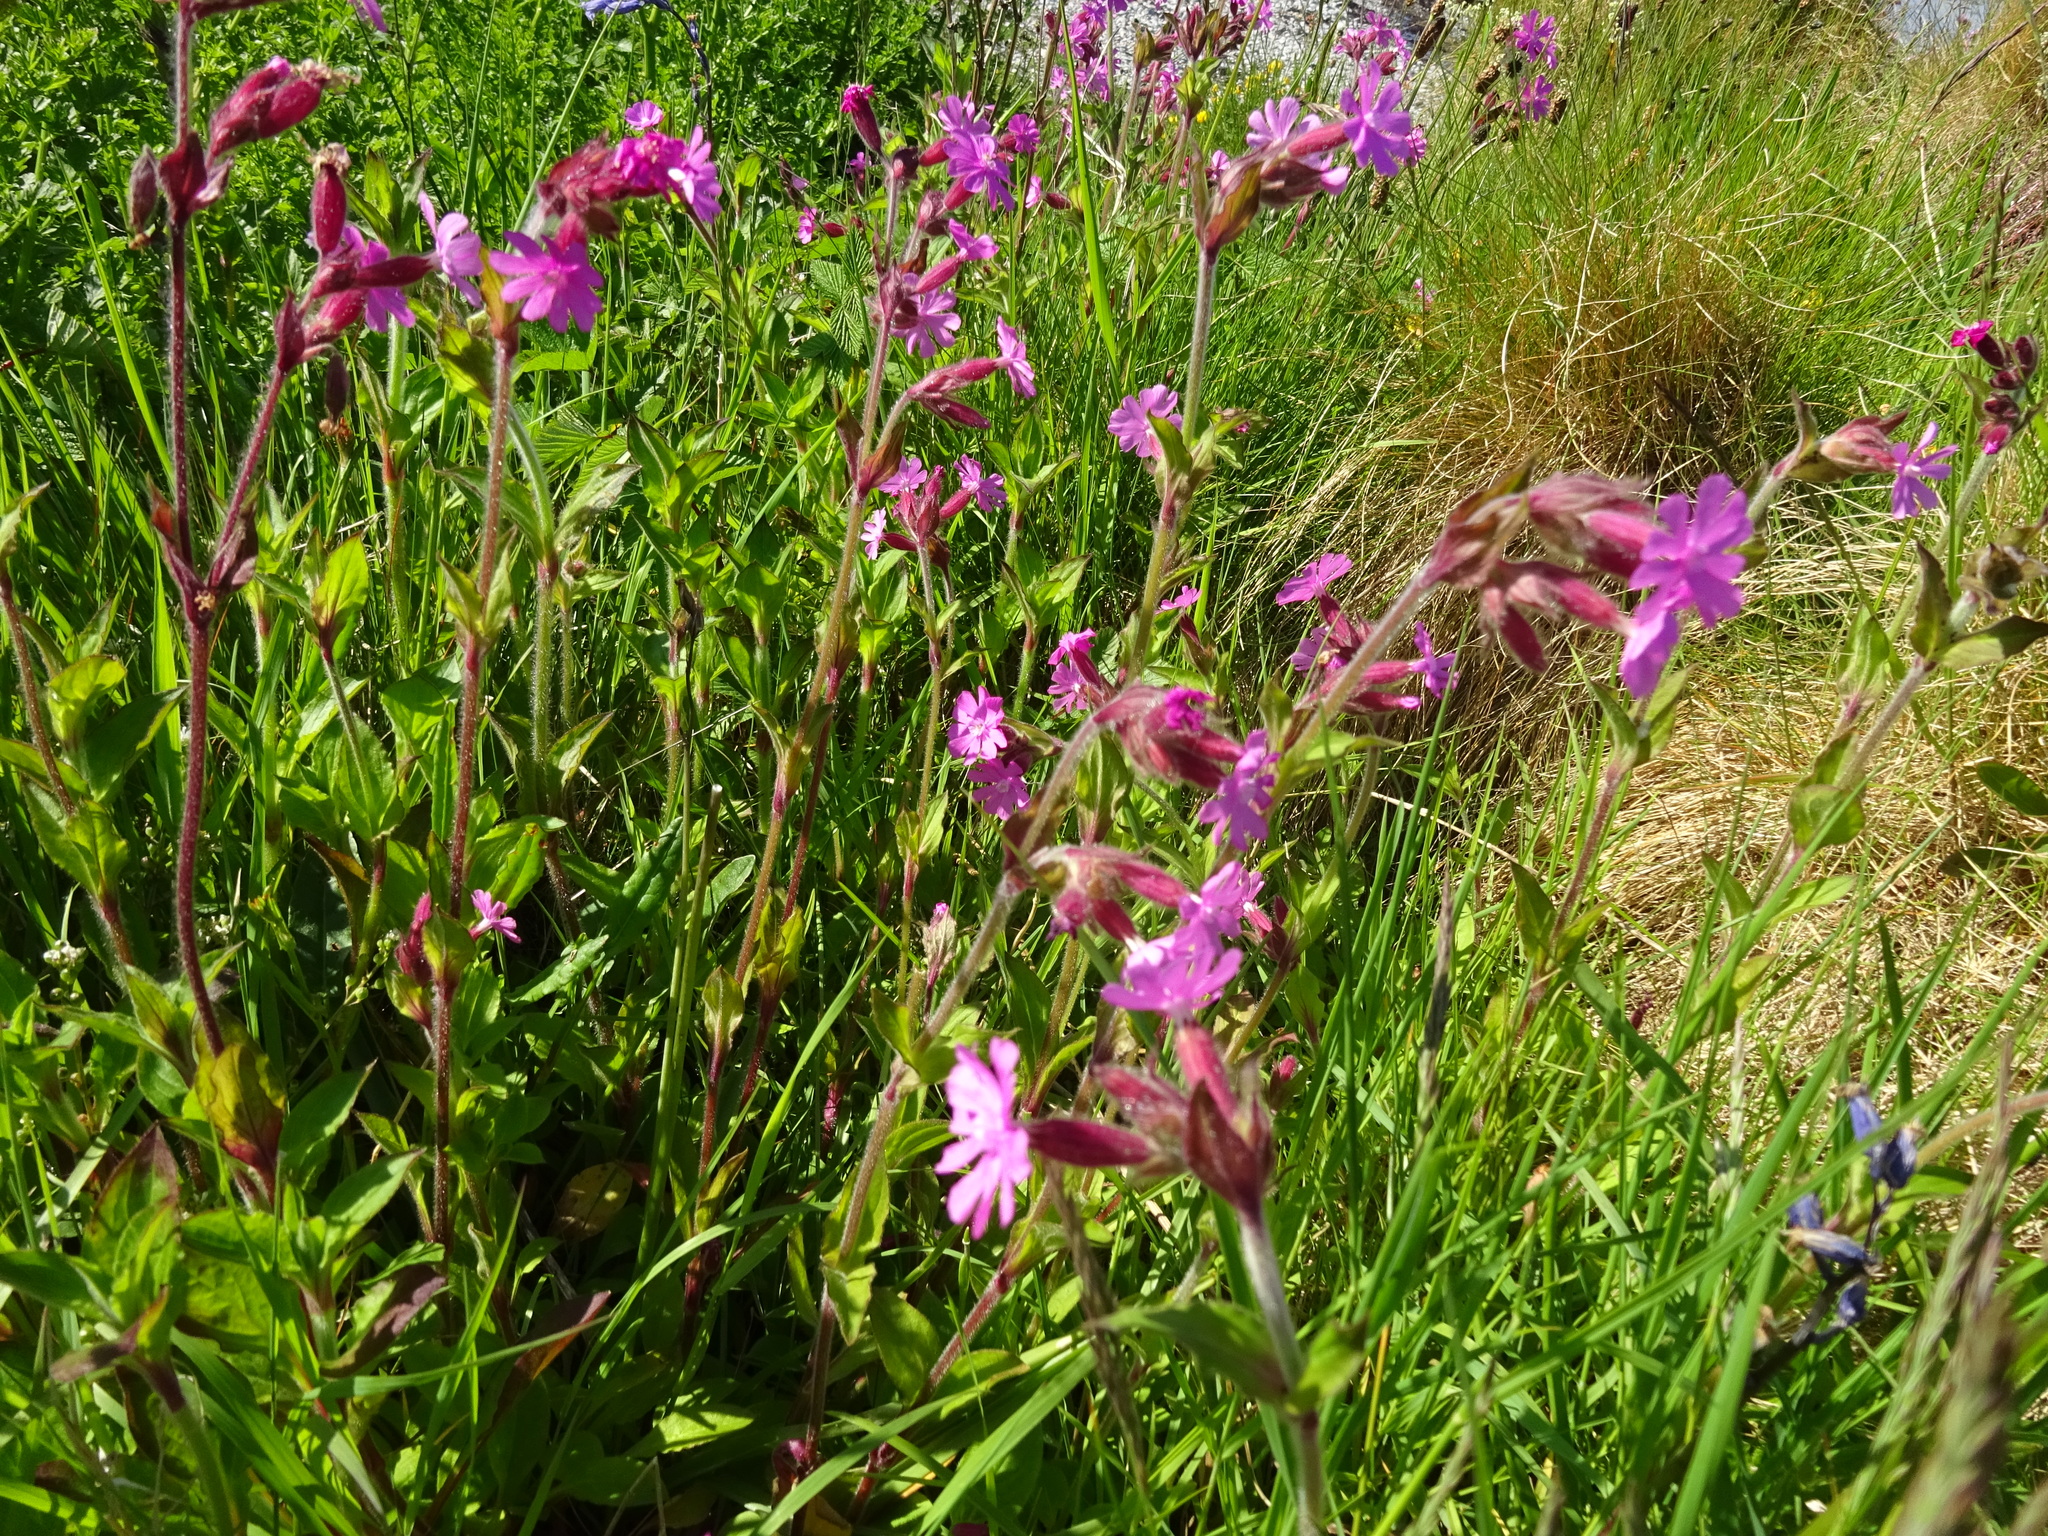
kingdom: Plantae
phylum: Tracheophyta
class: Magnoliopsida
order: Caryophyllales
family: Caryophyllaceae
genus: Silene
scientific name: Silene dioica
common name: Red campion
